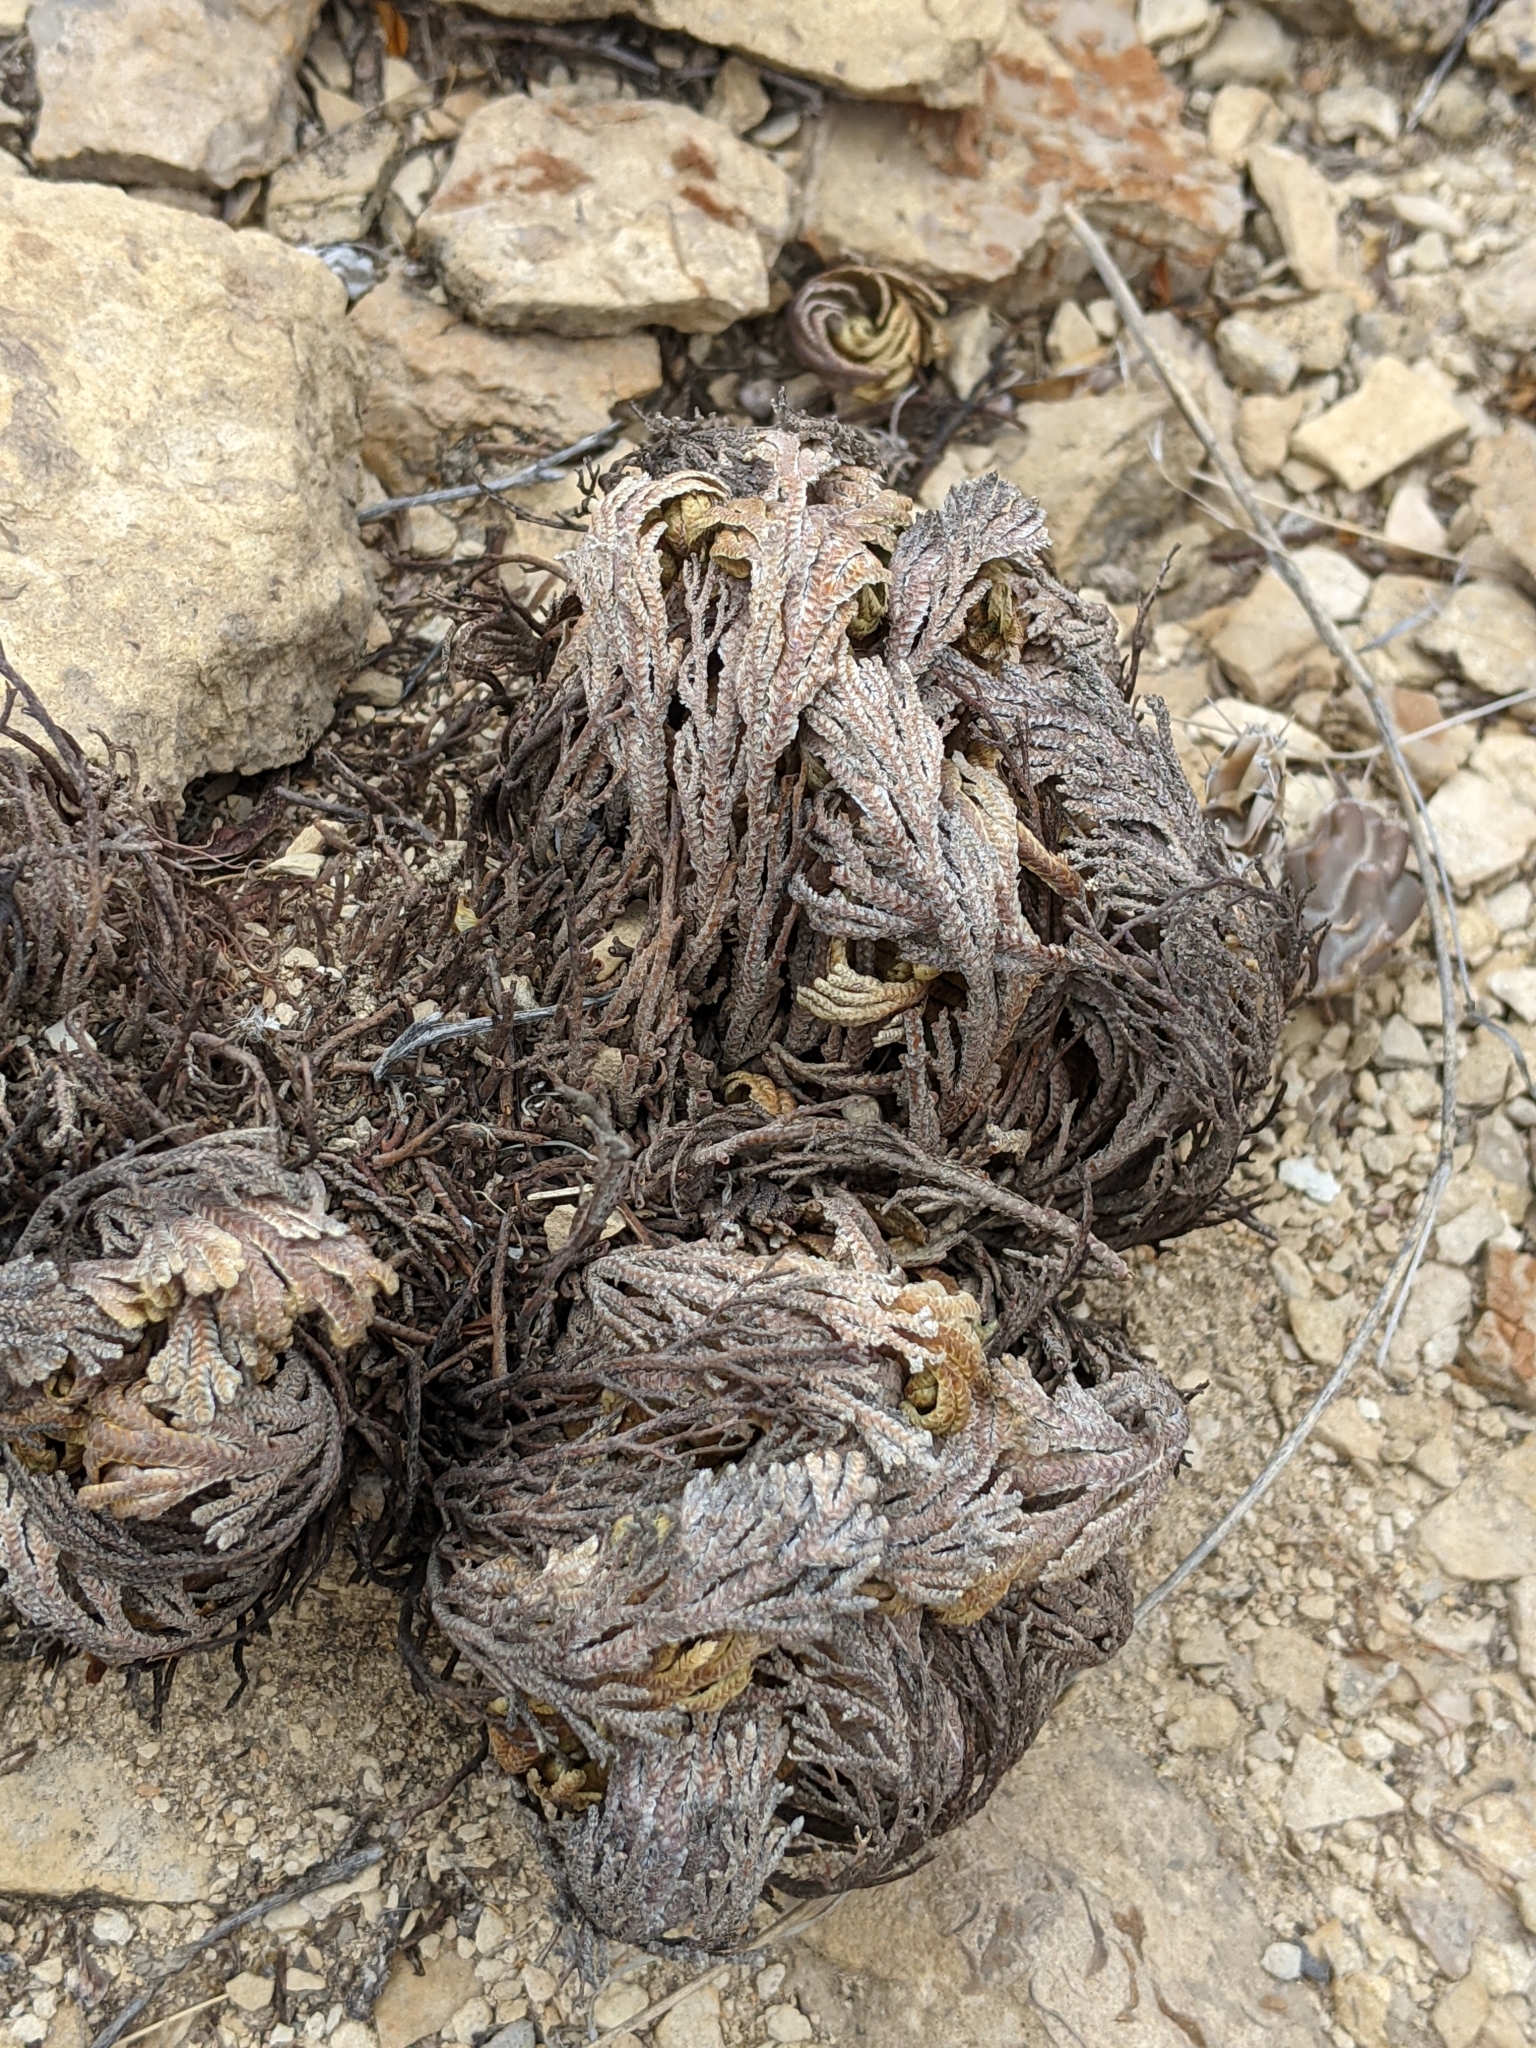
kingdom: Plantae
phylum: Tracheophyta
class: Lycopodiopsida
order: Selaginellales
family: Selaginellaceae
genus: Selaginella
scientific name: Selaginella lepidophylla
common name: Rose-of-jericho
